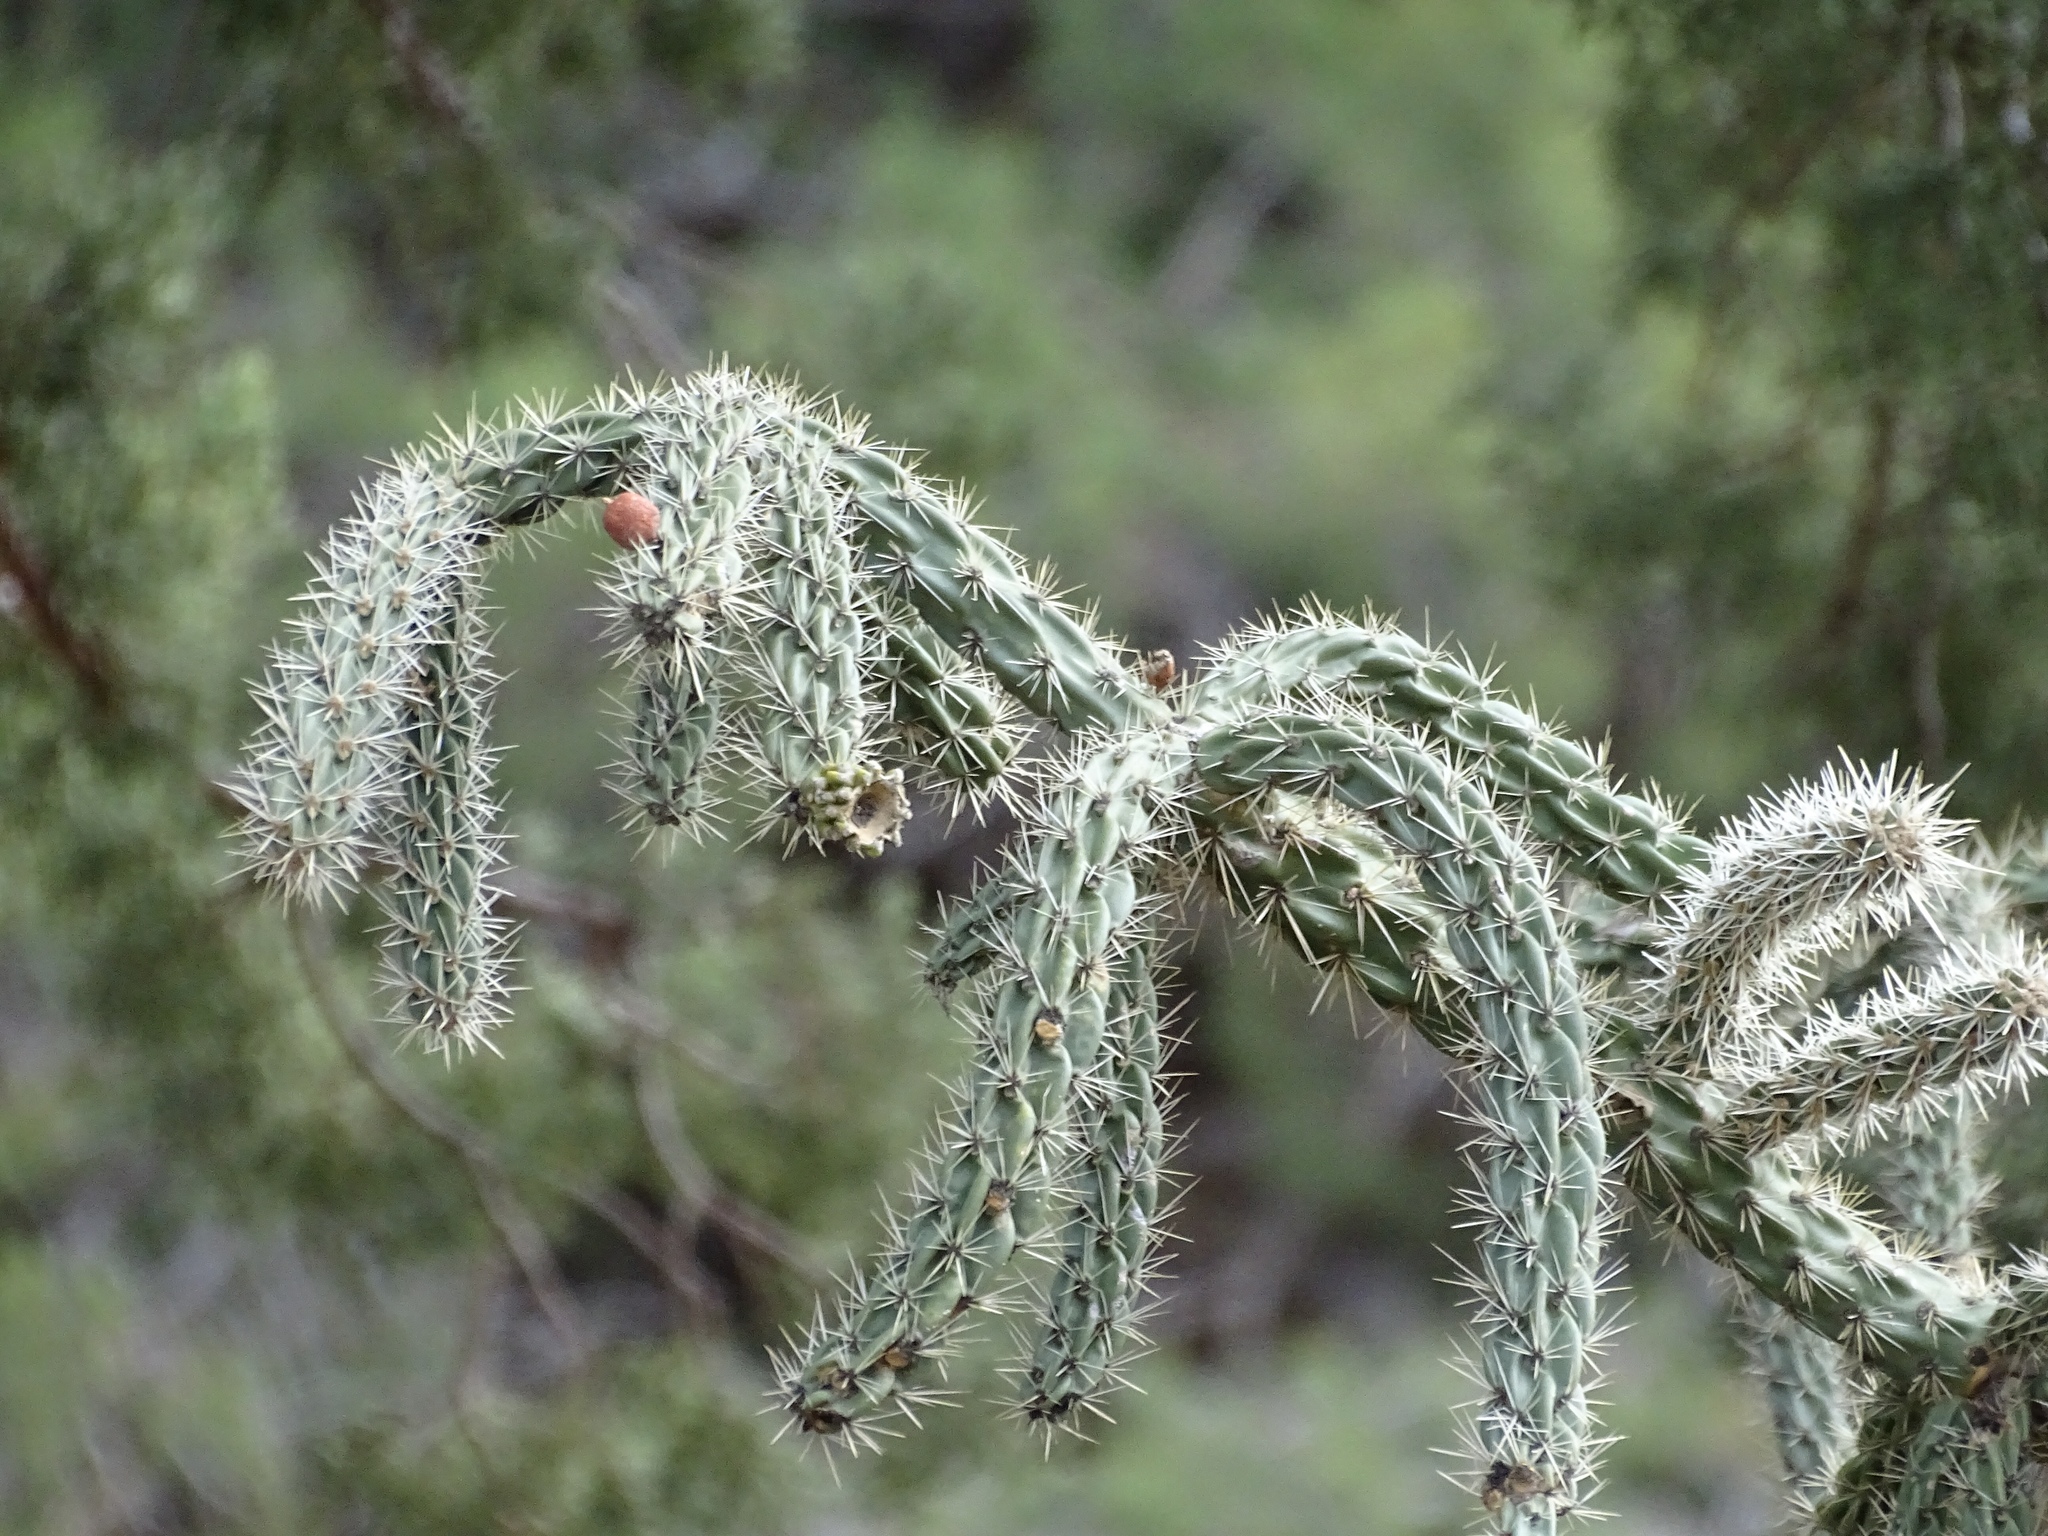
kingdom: Plantae
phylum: Tracheophyta
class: Magnoliopsida
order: Caryophyllales
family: Cactaceae
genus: Cylindropuntia
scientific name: Cylindropuntia imbricata
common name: Candelabrum cactus
